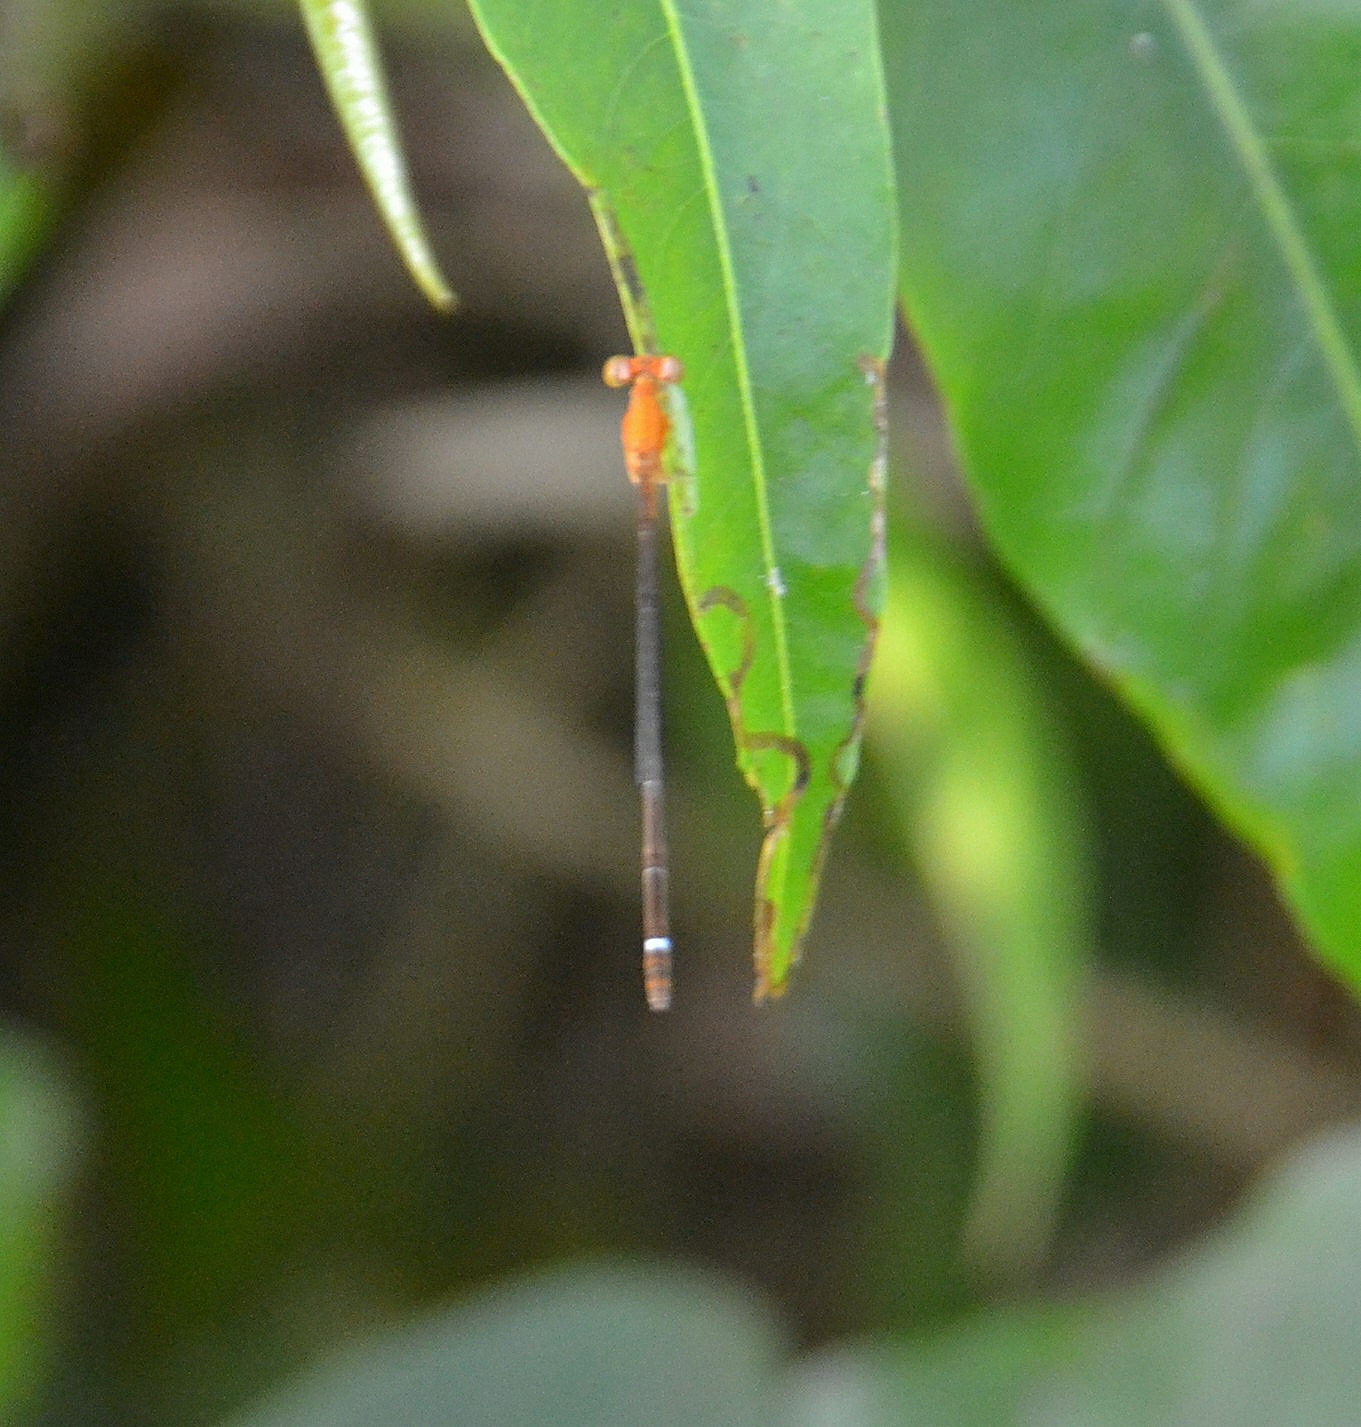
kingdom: Animalia
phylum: Arthropoda
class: Insecta
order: Odonata
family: Coenagrionidae
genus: Mortonagrion
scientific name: Mortonagrion varralli
